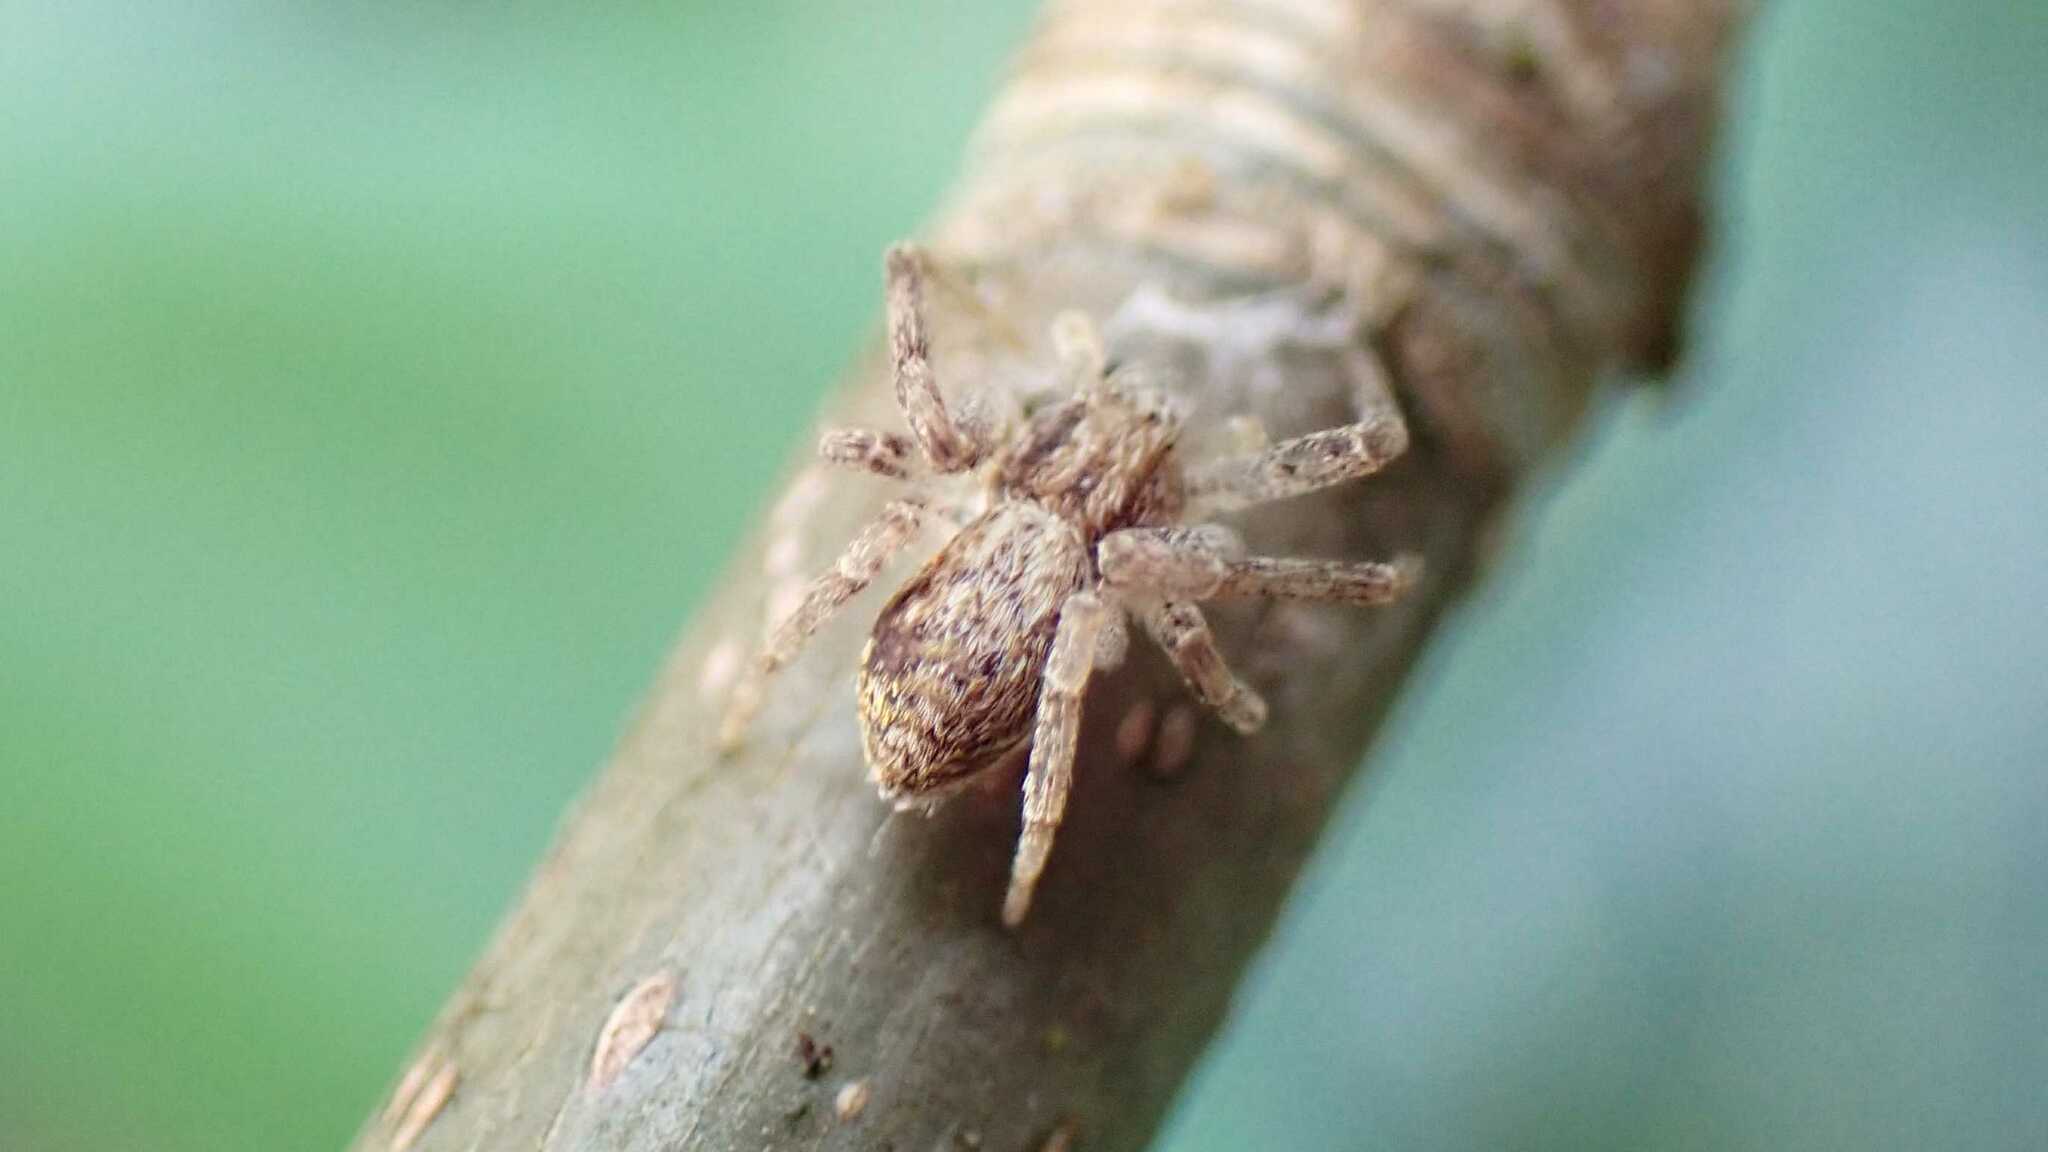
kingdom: Animalia
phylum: Arthropoda
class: Arachnida
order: Araneae
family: Philodromidae
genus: Philodromus
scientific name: Philodromus dispar
